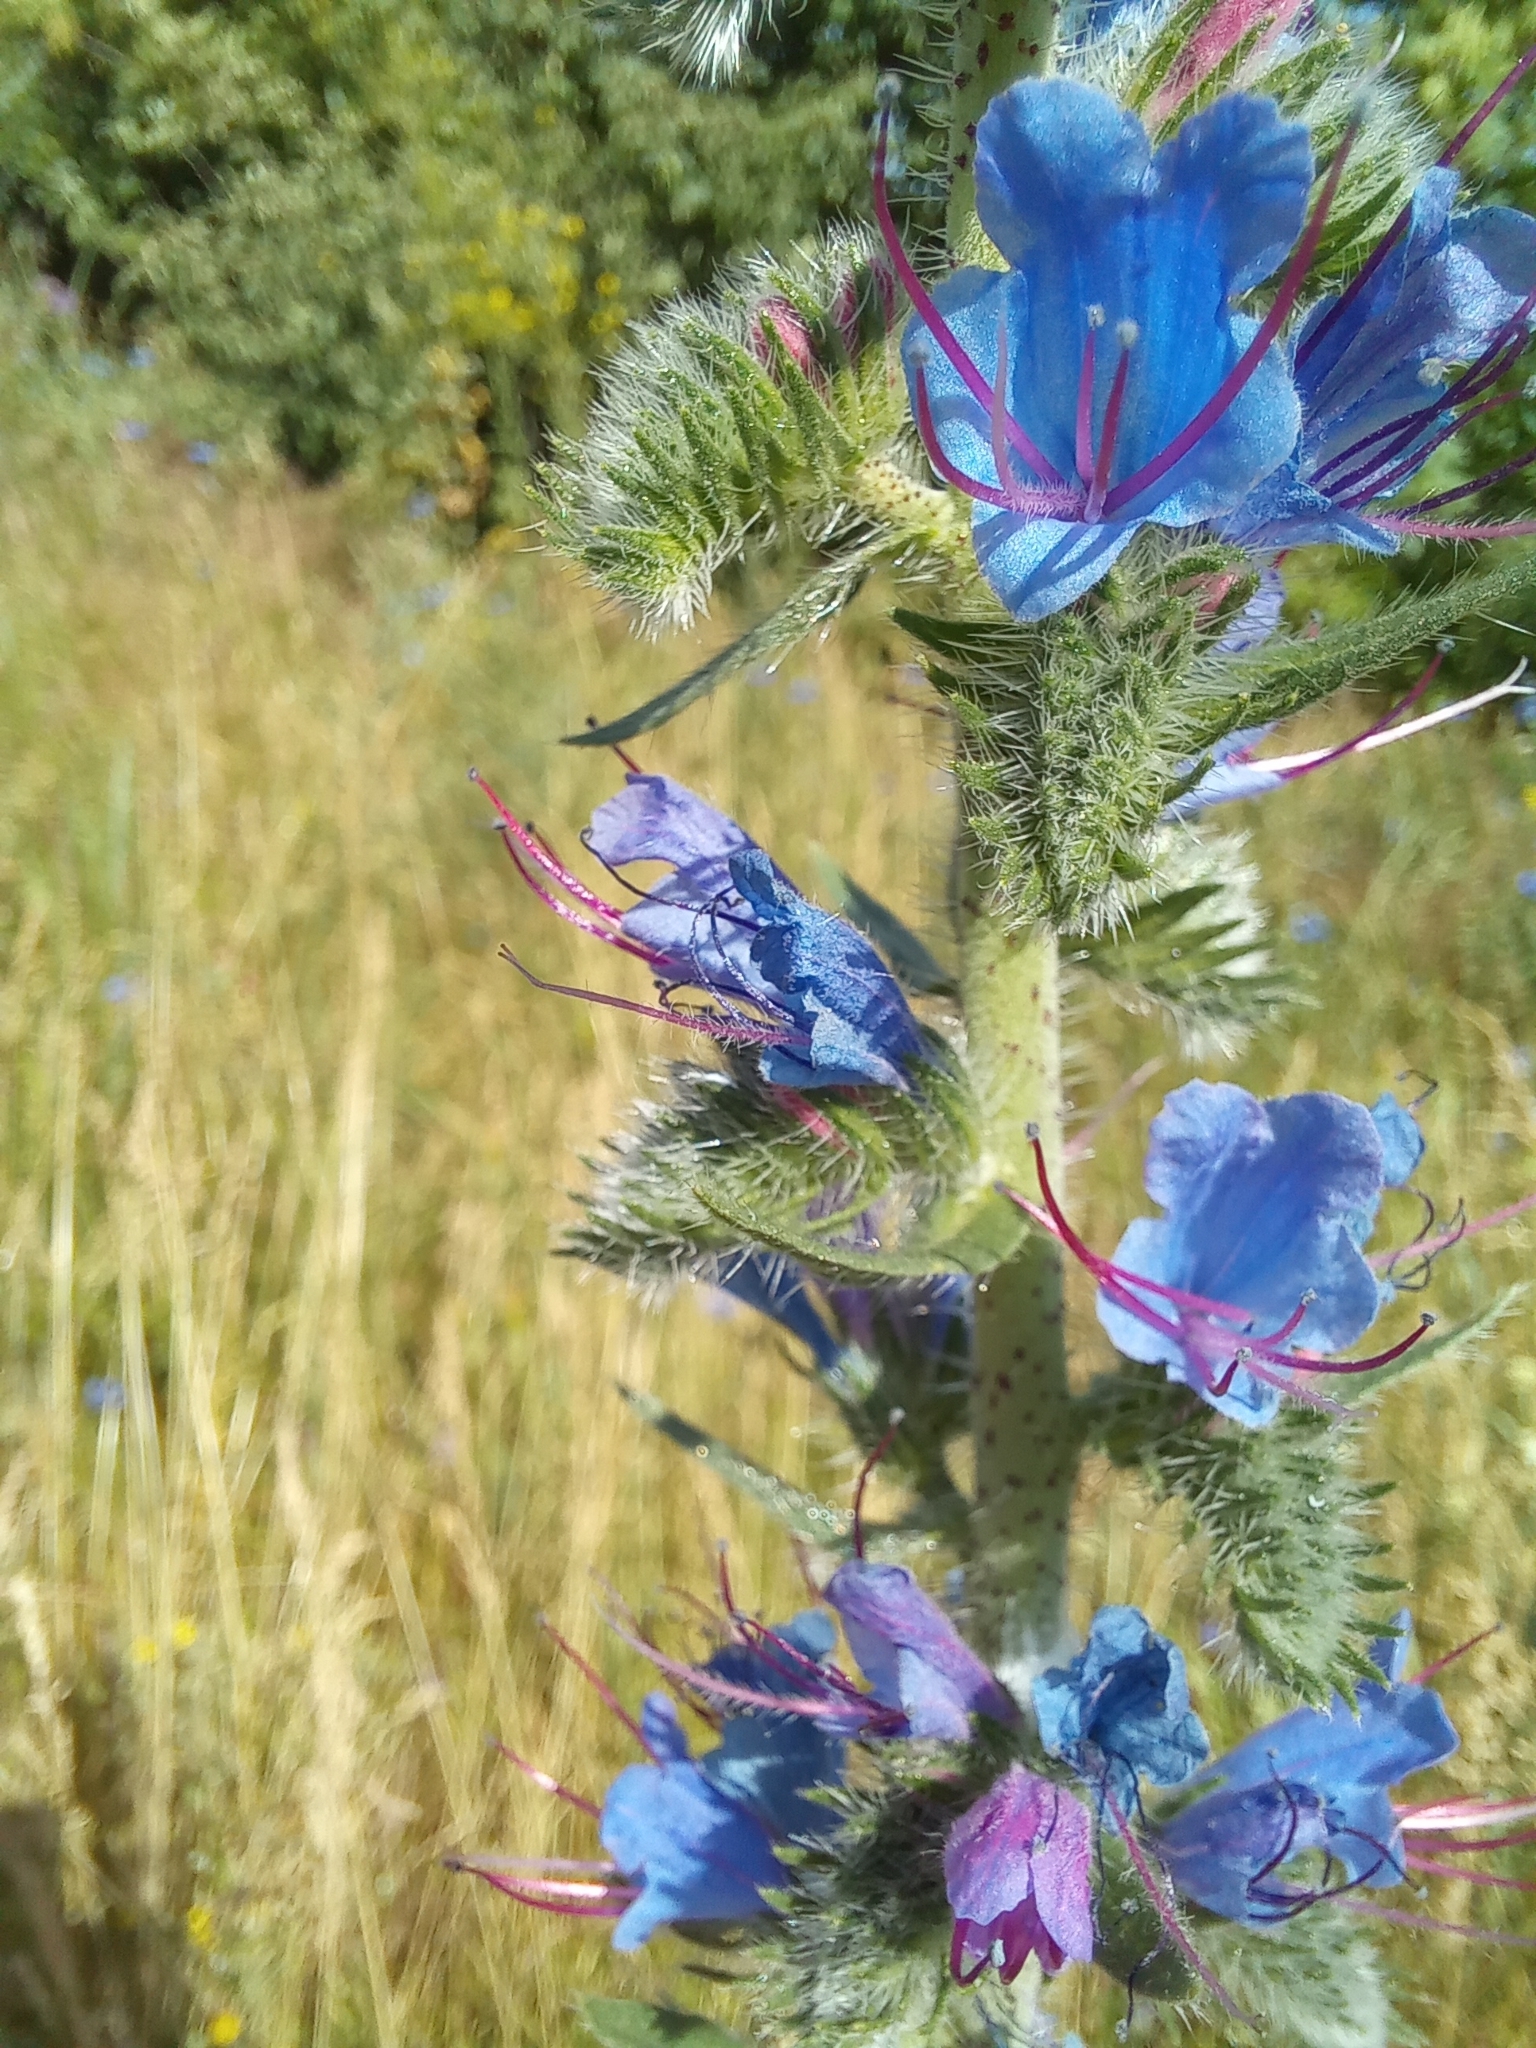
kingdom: Plantae
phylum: Tracheophyta
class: Magnoliopsida
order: Boraginales
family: Boraginaceae
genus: Echium
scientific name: Echium vulgare
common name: Common viper's bugloss
